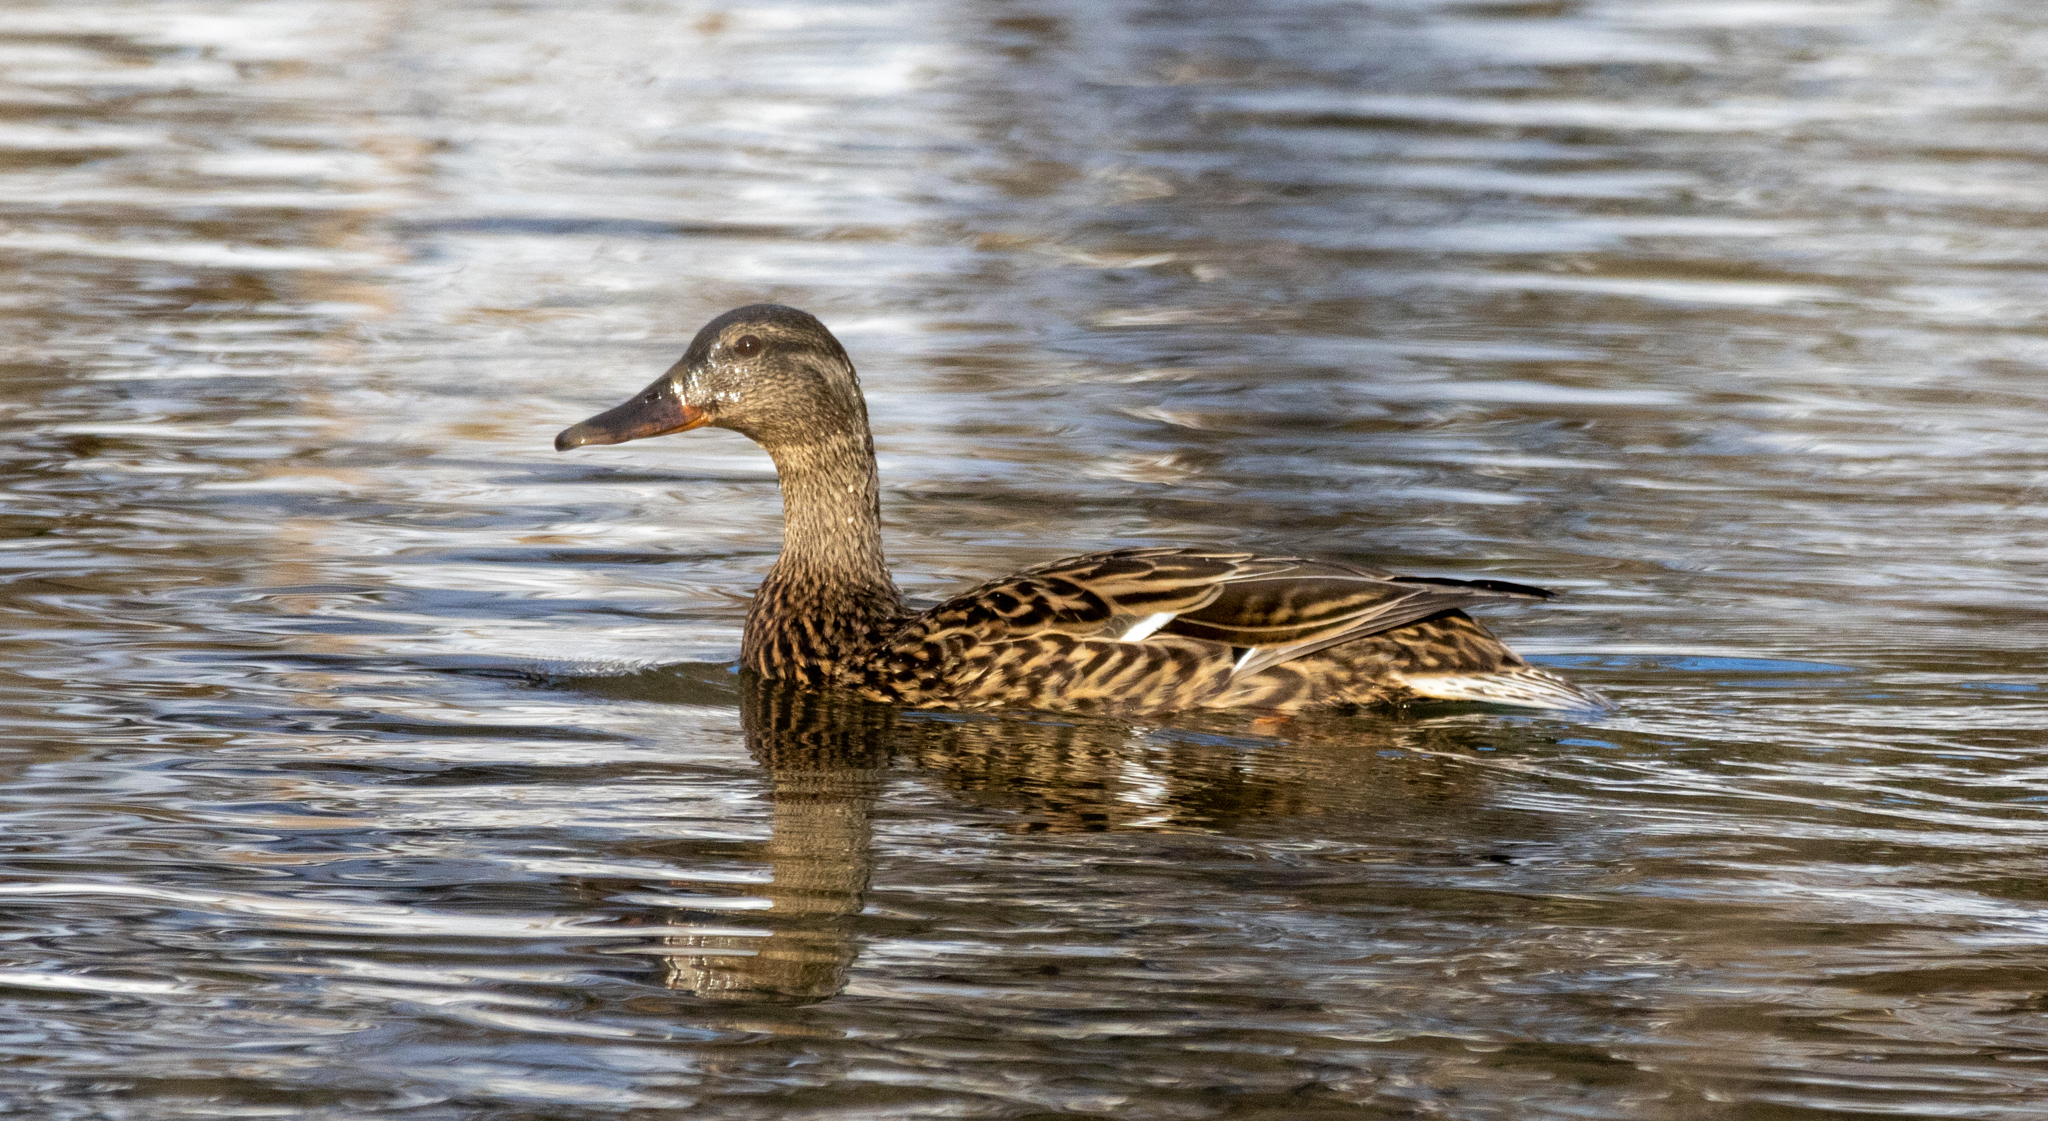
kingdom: Animalia
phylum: Chordata
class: Aves
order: Anseriformes
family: Anatidae
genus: Anas
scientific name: Anas platyrhynchos
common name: Mallard
